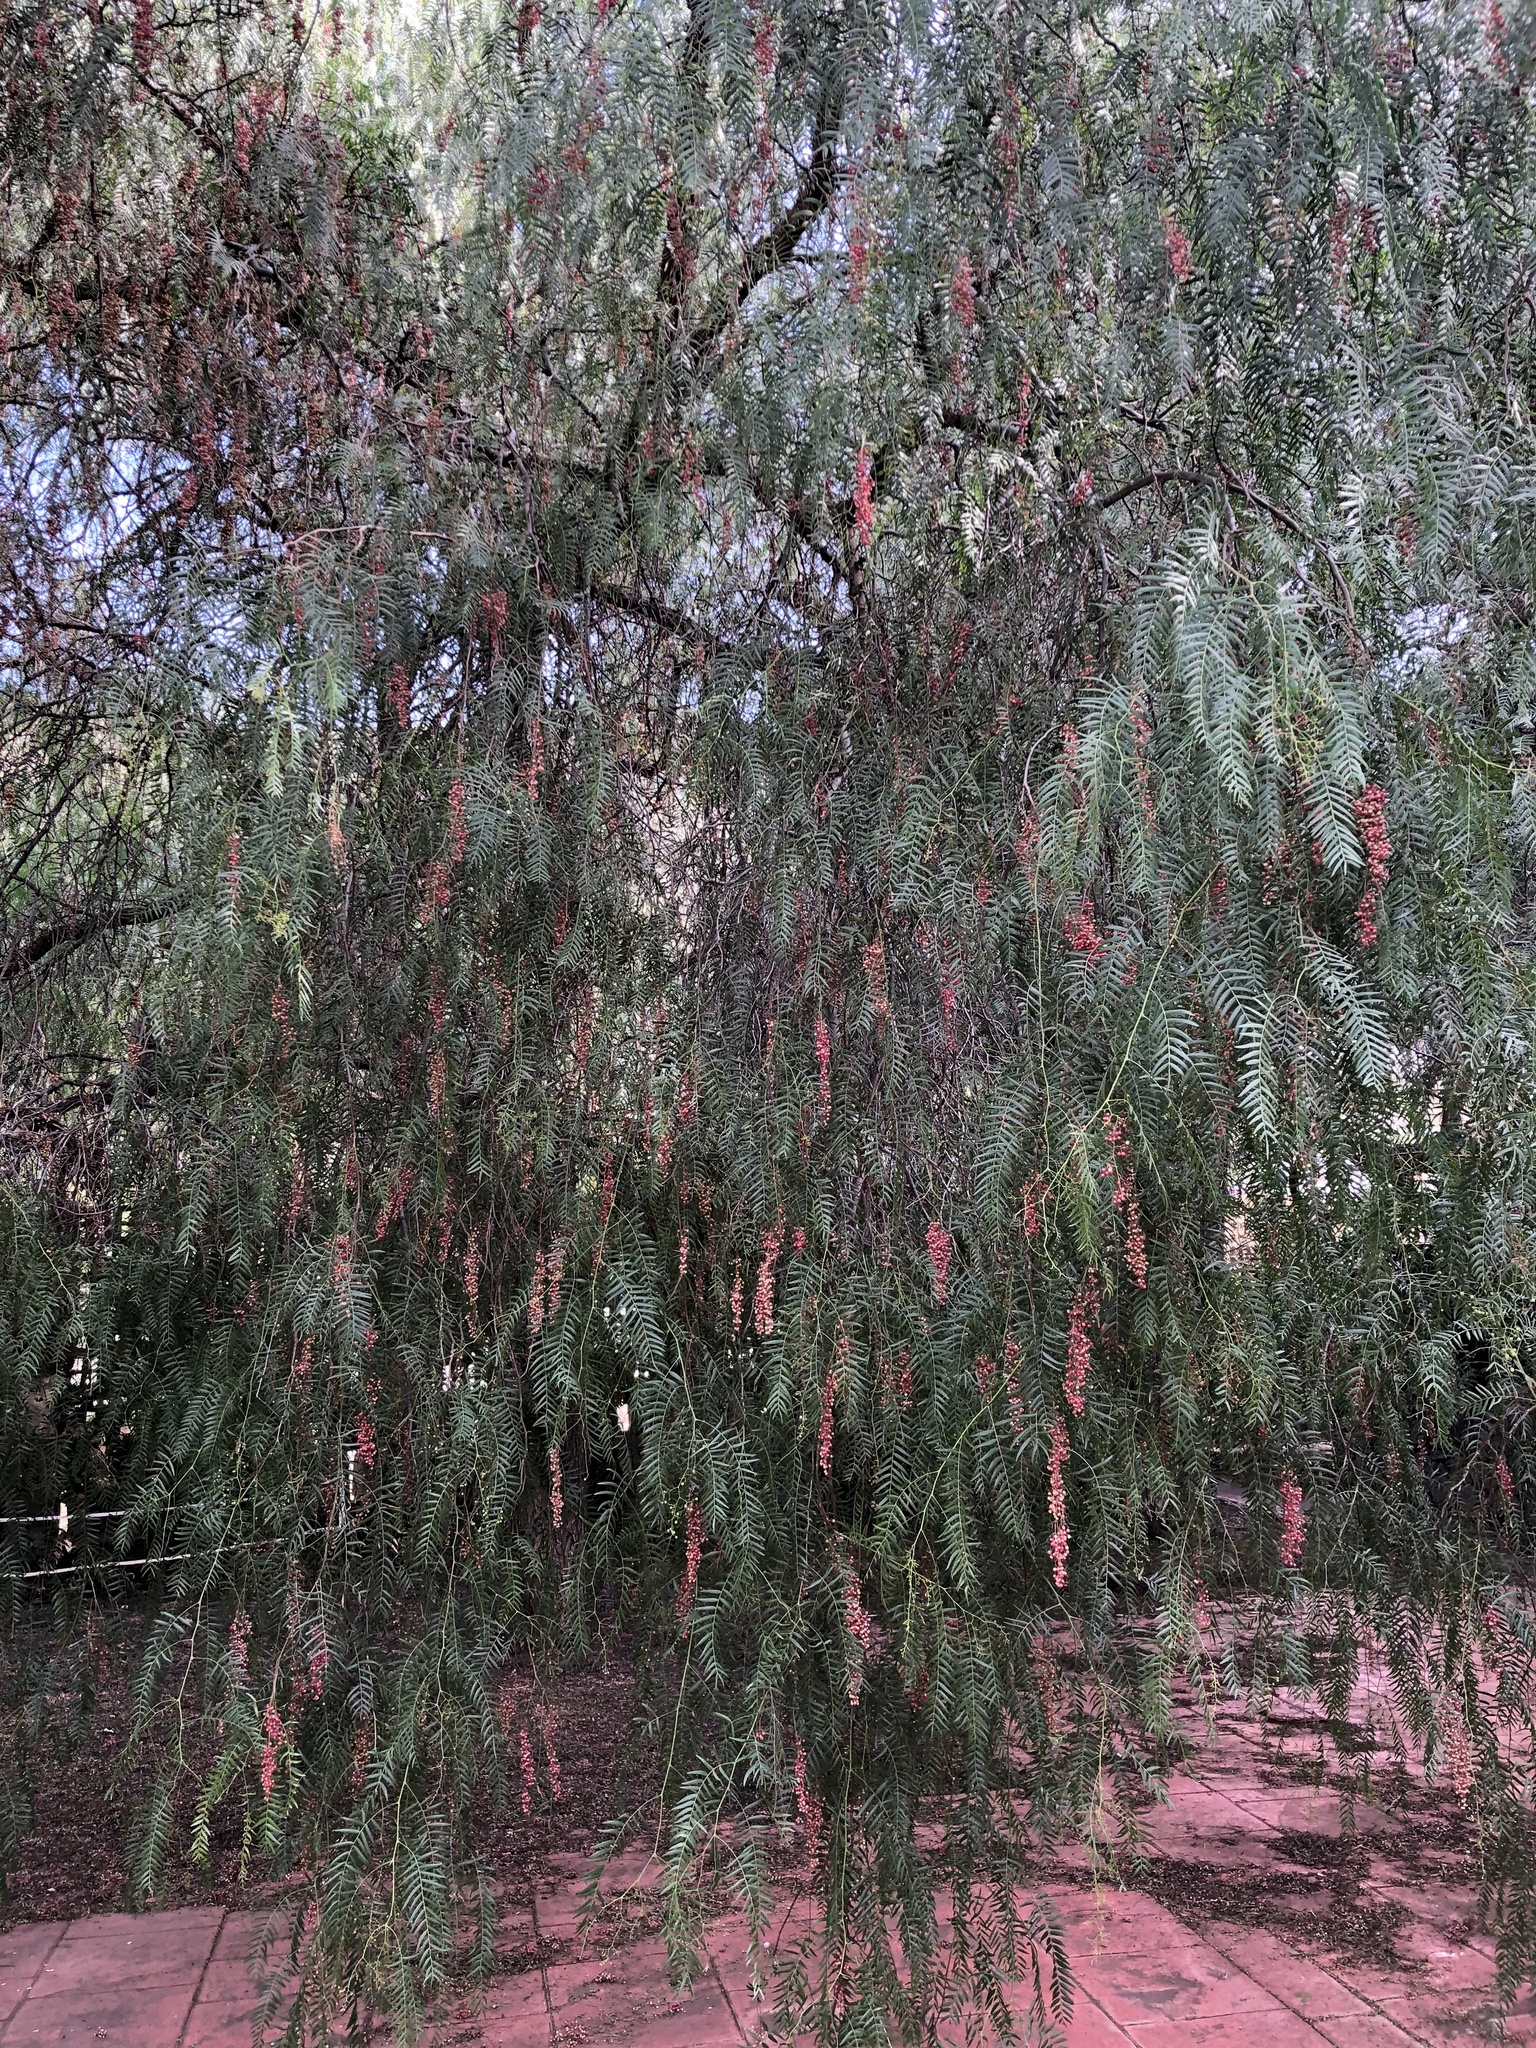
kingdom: Plantae
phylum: Tracheophyta
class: Magnoliopsida
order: Sapindales
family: Anacardiaceae
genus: Schinus
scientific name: Schinus molle
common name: Peruvian peppertree
